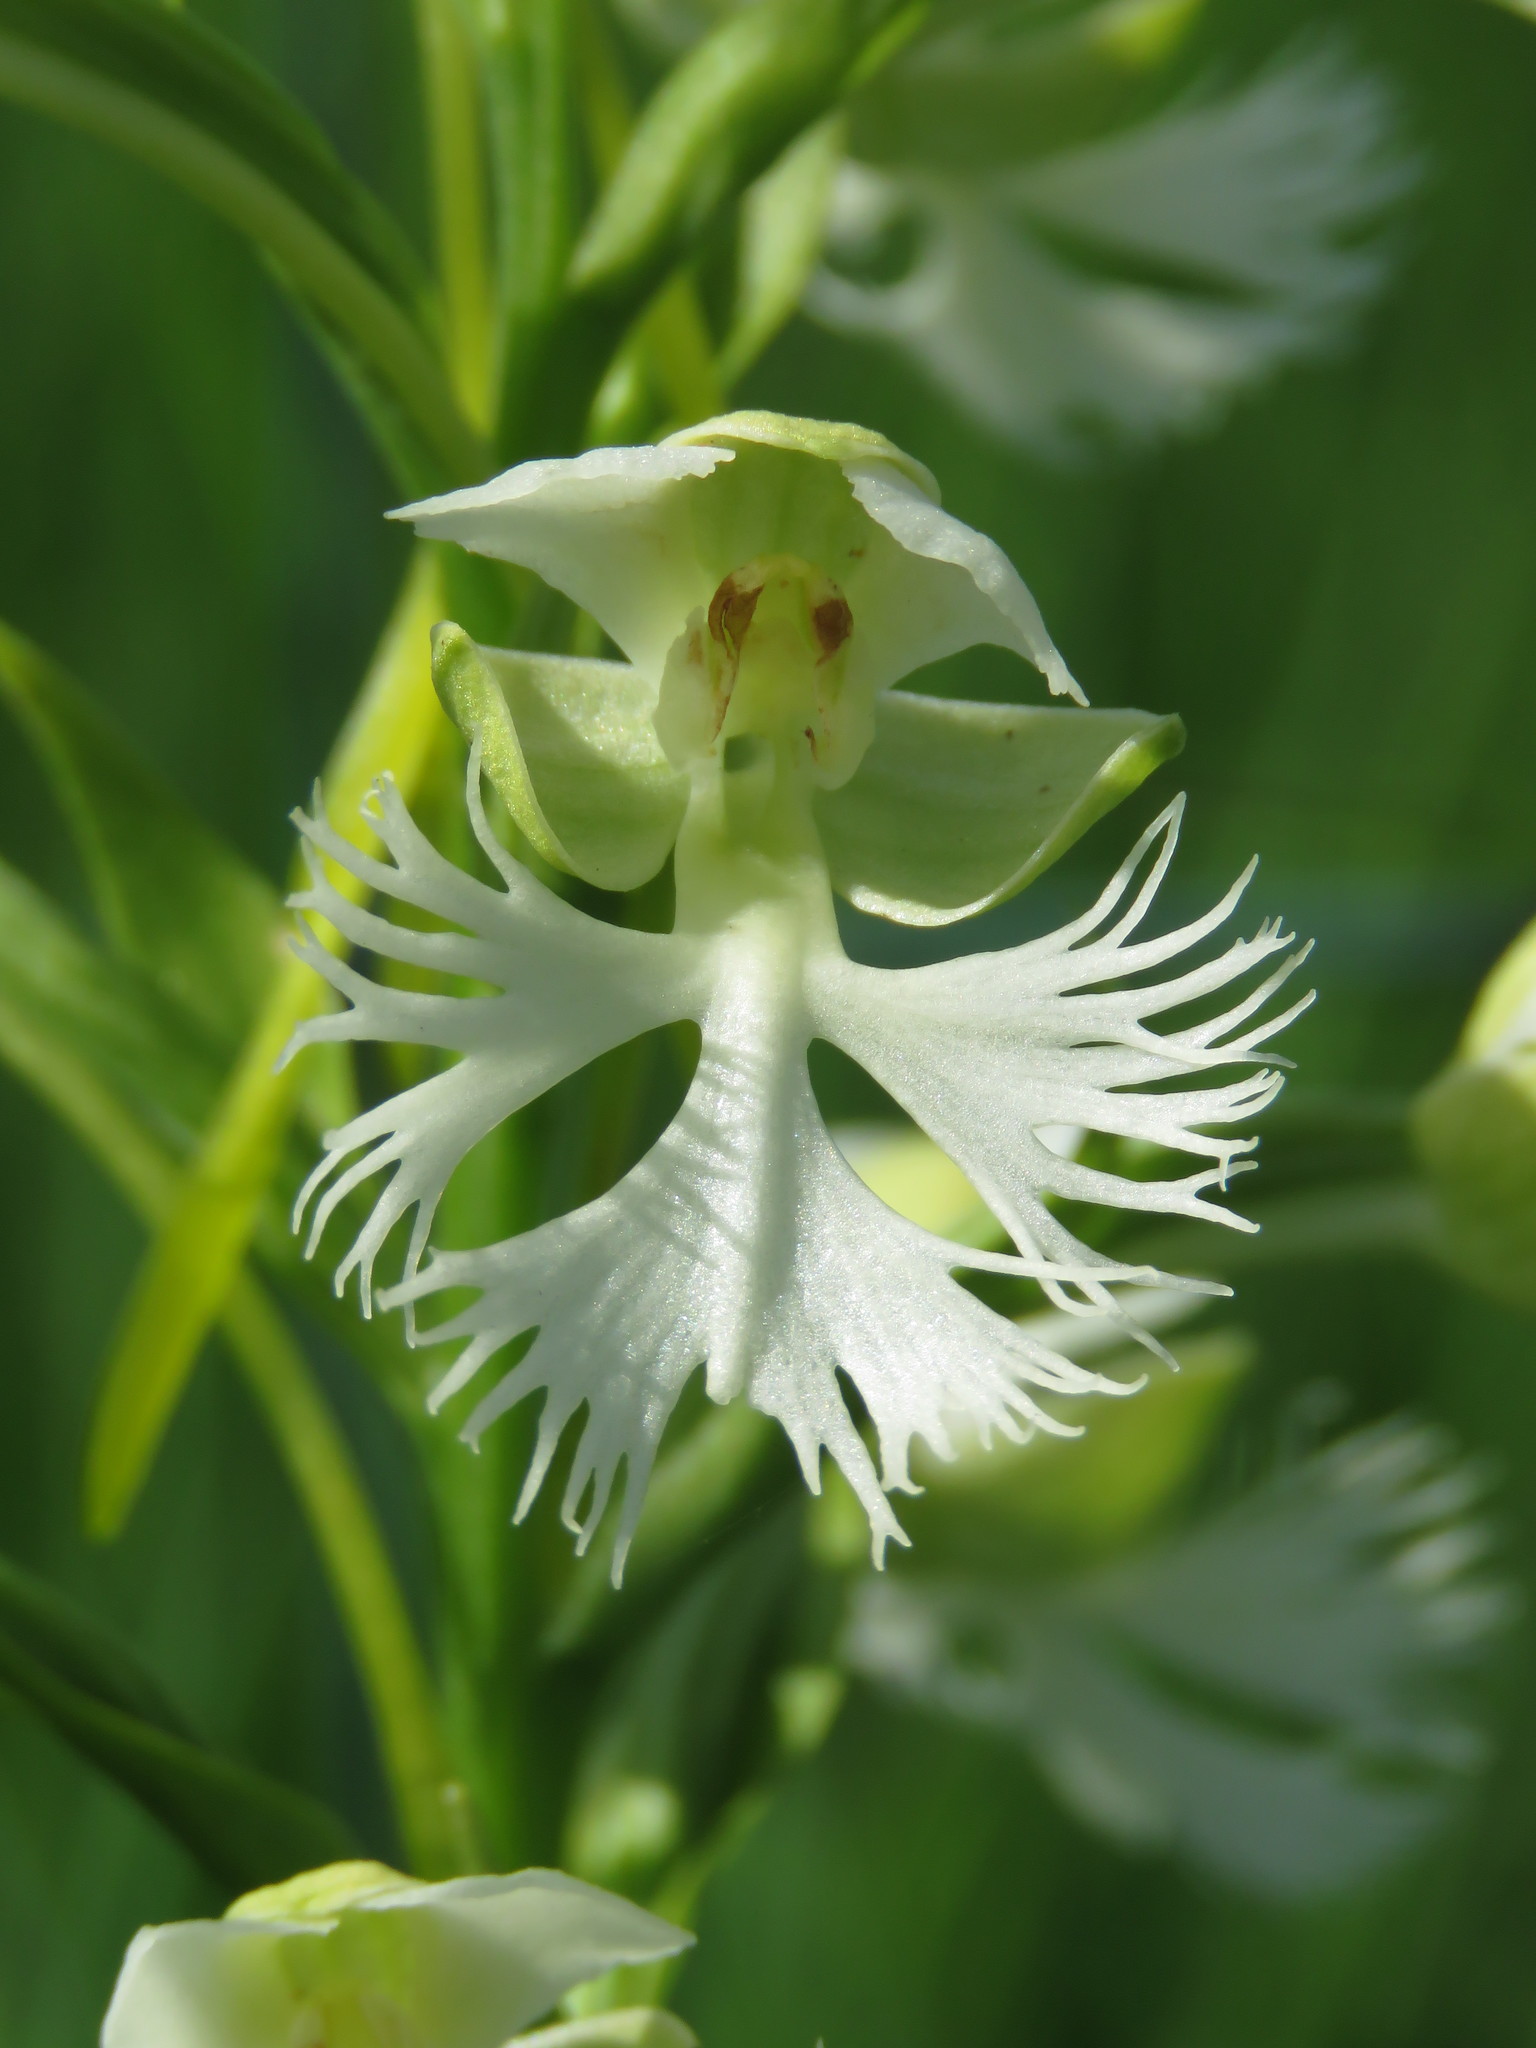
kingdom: Plantae
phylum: Tracheophyta
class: Liliopsida
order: Asparagales
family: Orchidaceae
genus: Platanthera
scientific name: Platanthera leucophaea
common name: Eastern prairie white-fringed orchid
